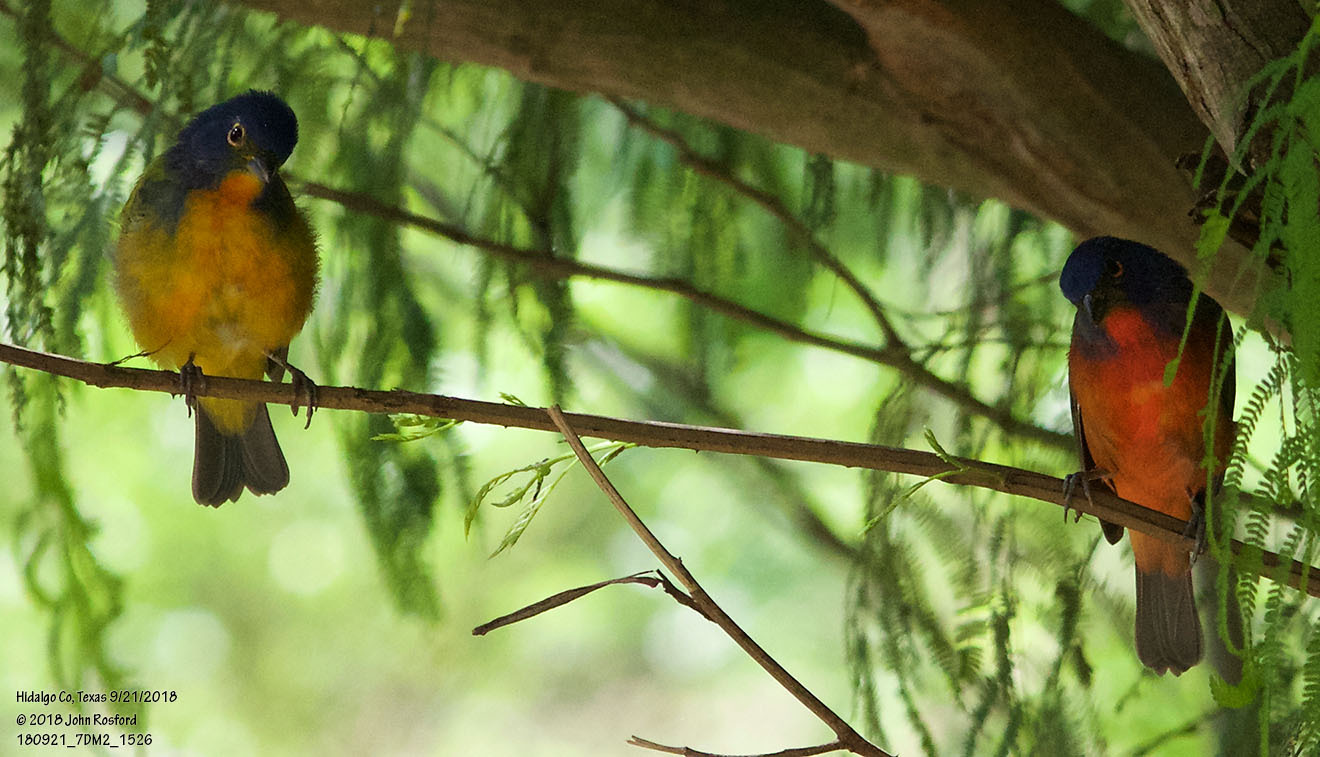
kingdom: Animalia
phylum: Chordata
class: Aves
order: Passeriformes
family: Cardinalidae
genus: Passerina
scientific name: Passerina ciris
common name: Painted bunting
